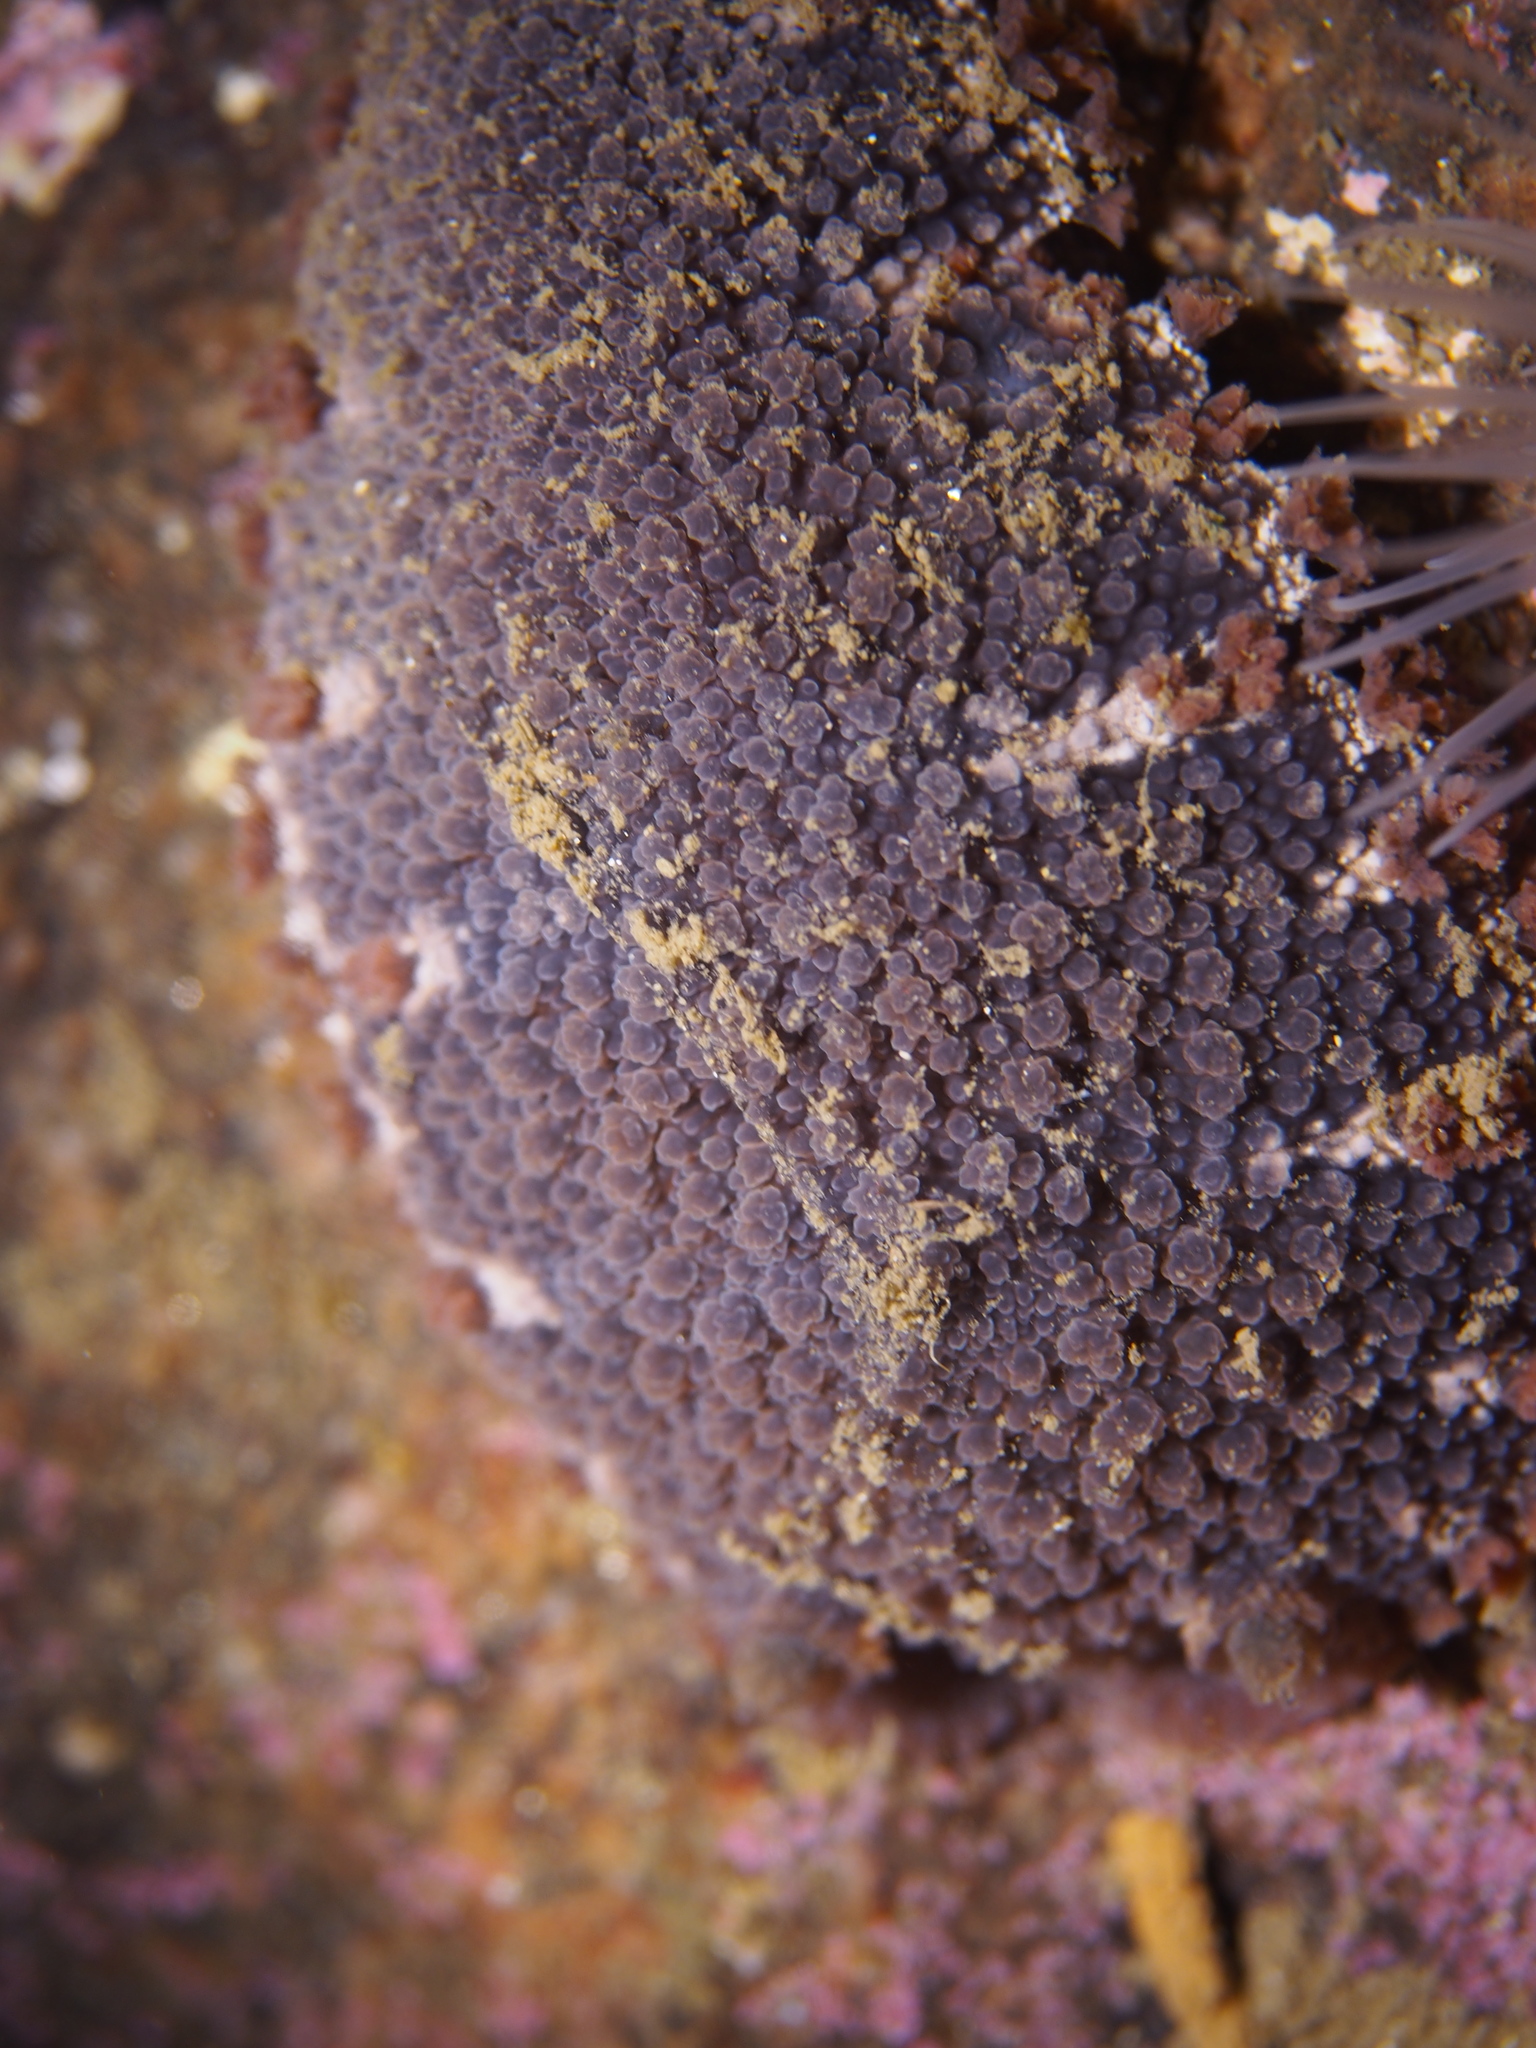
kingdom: Animalia
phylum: Mollusca
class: Gastropoda
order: Nudibranchia
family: Tritoniidae
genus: Tritonia
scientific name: Tritonia hombergii
